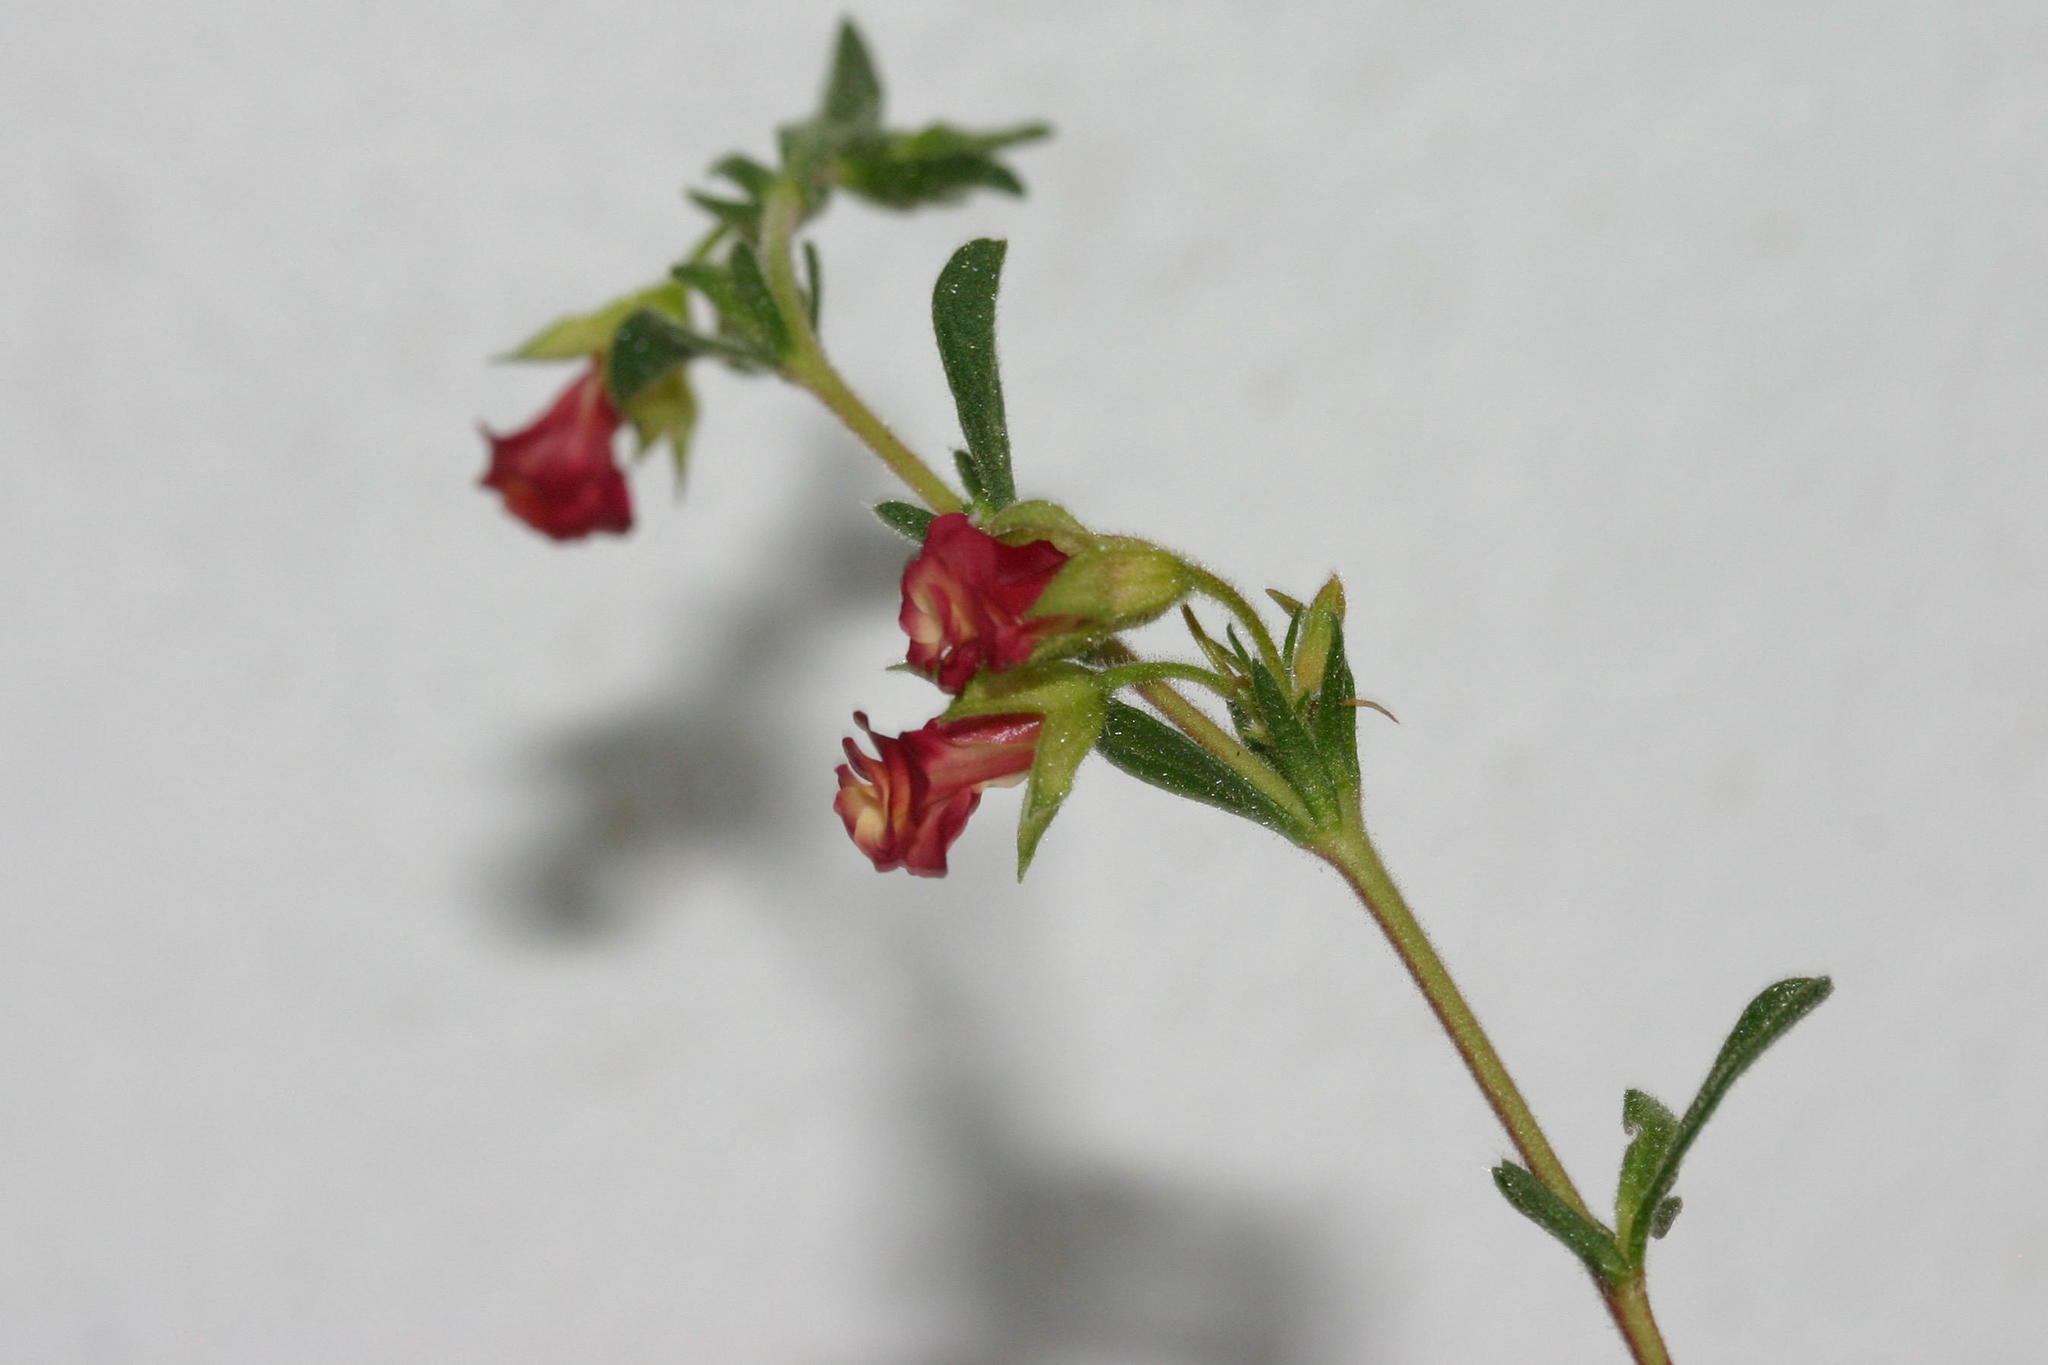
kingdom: Plantae
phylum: Tracheophyta
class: Magnoliopsida
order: Malvales
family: Malvaceae
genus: Hermannia
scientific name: Hermannia flammula
